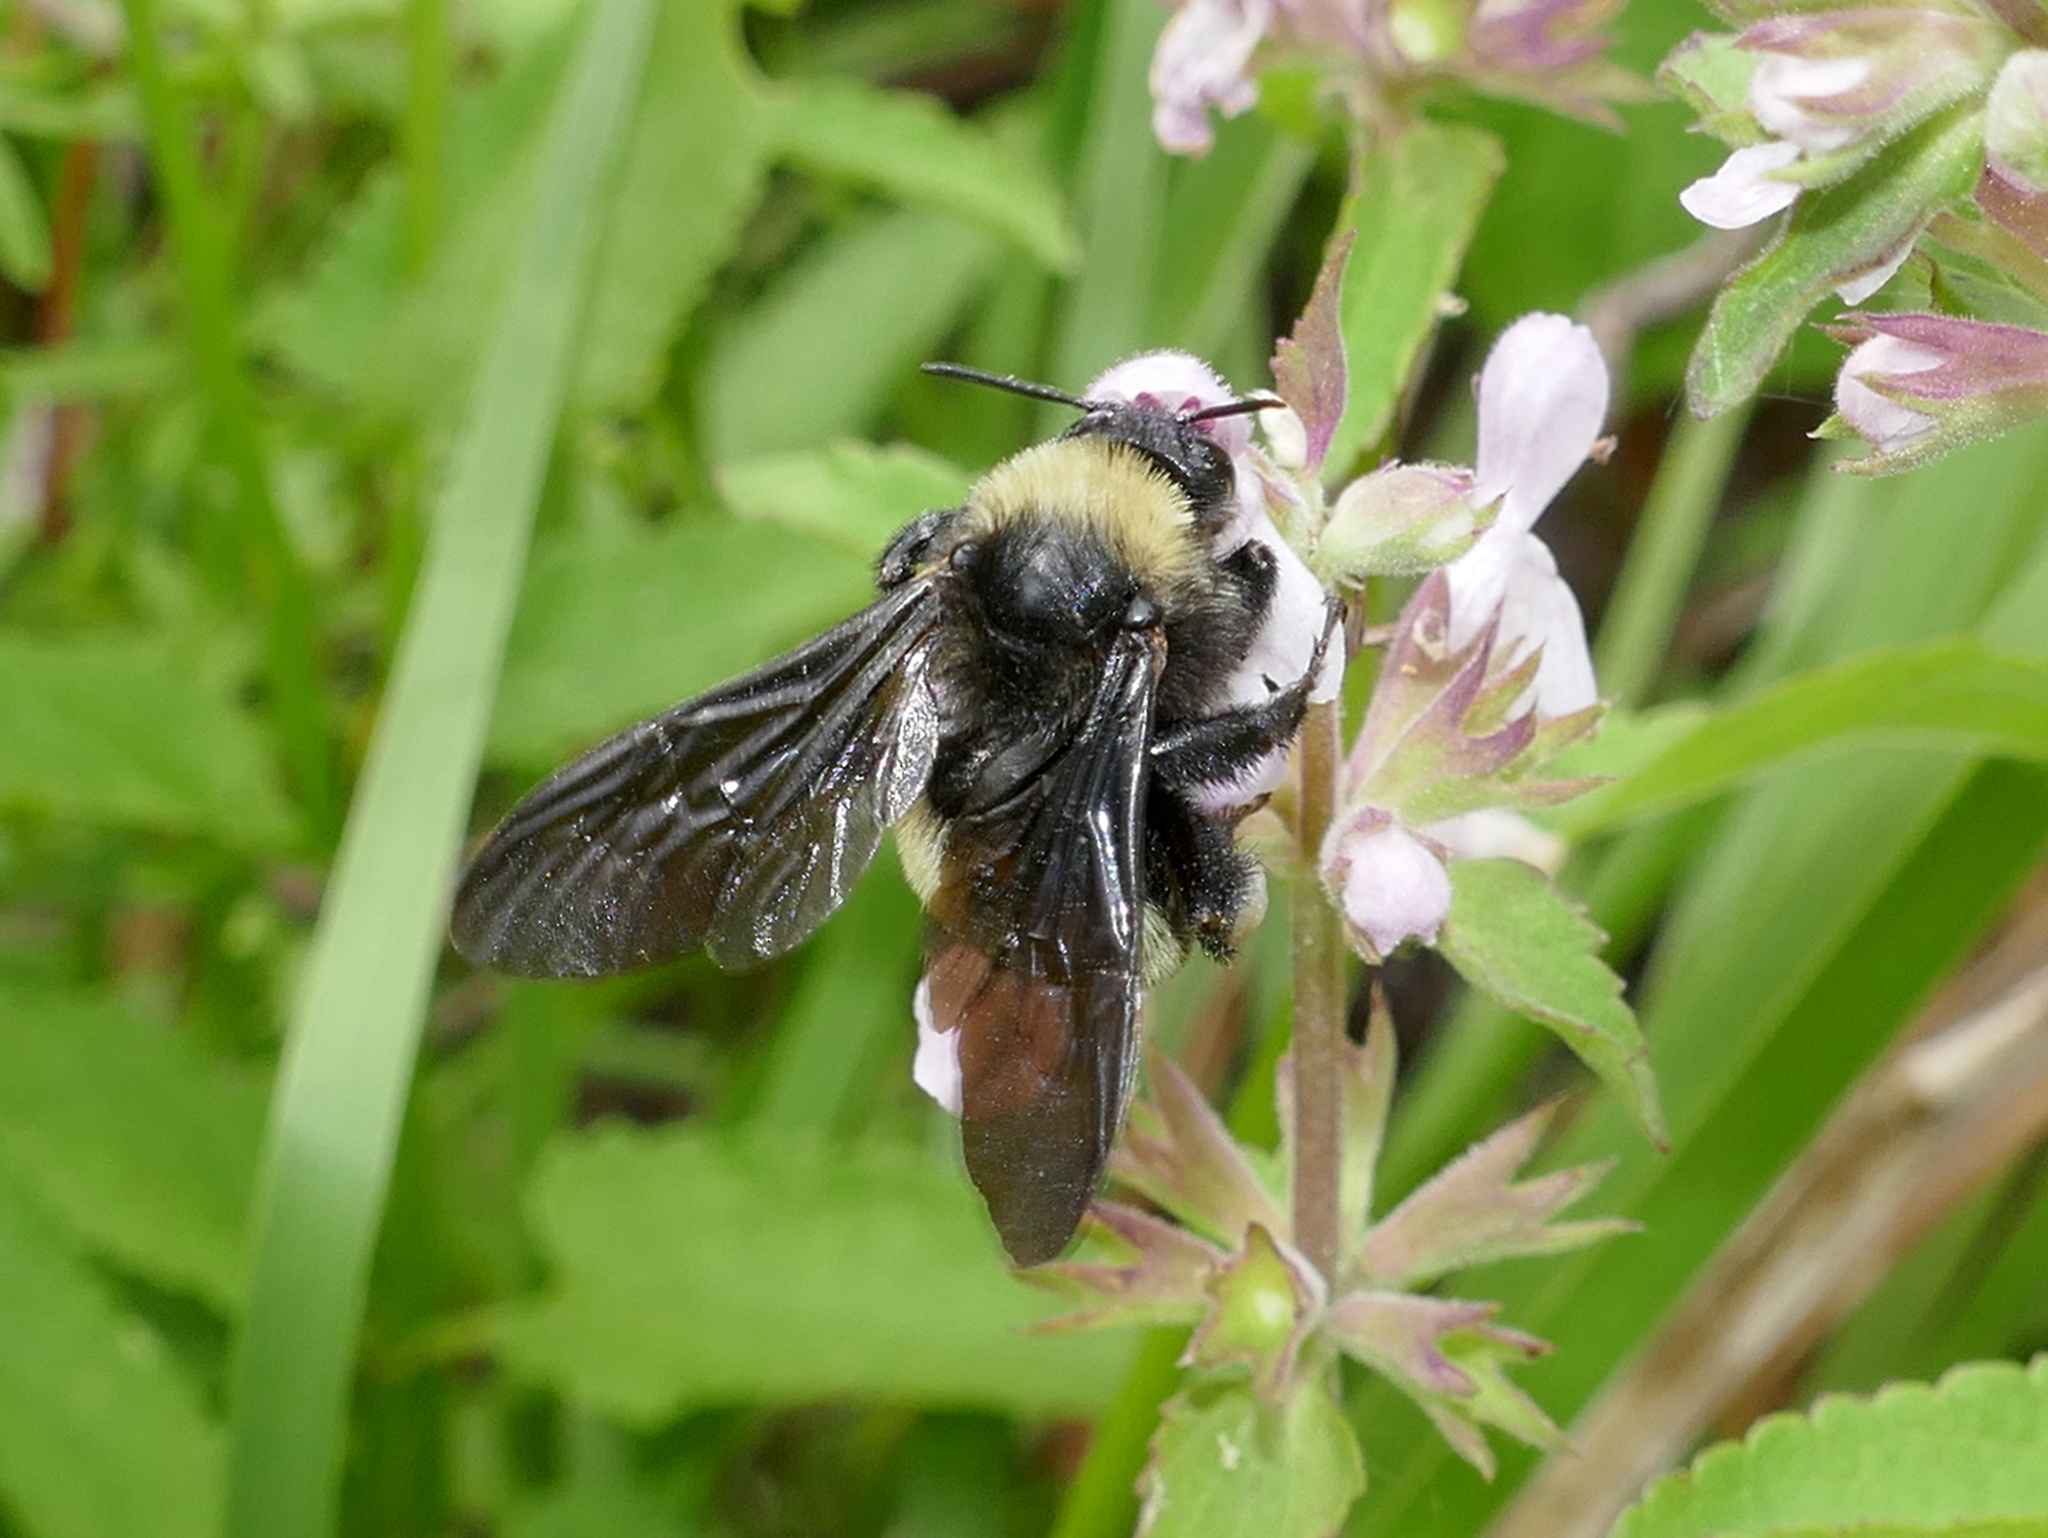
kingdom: Animalia
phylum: Arthropoda
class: Insecta
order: Hymenoptera
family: Apidae
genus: Bombus
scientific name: Bombus pensylvanicus
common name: Bumble bee
